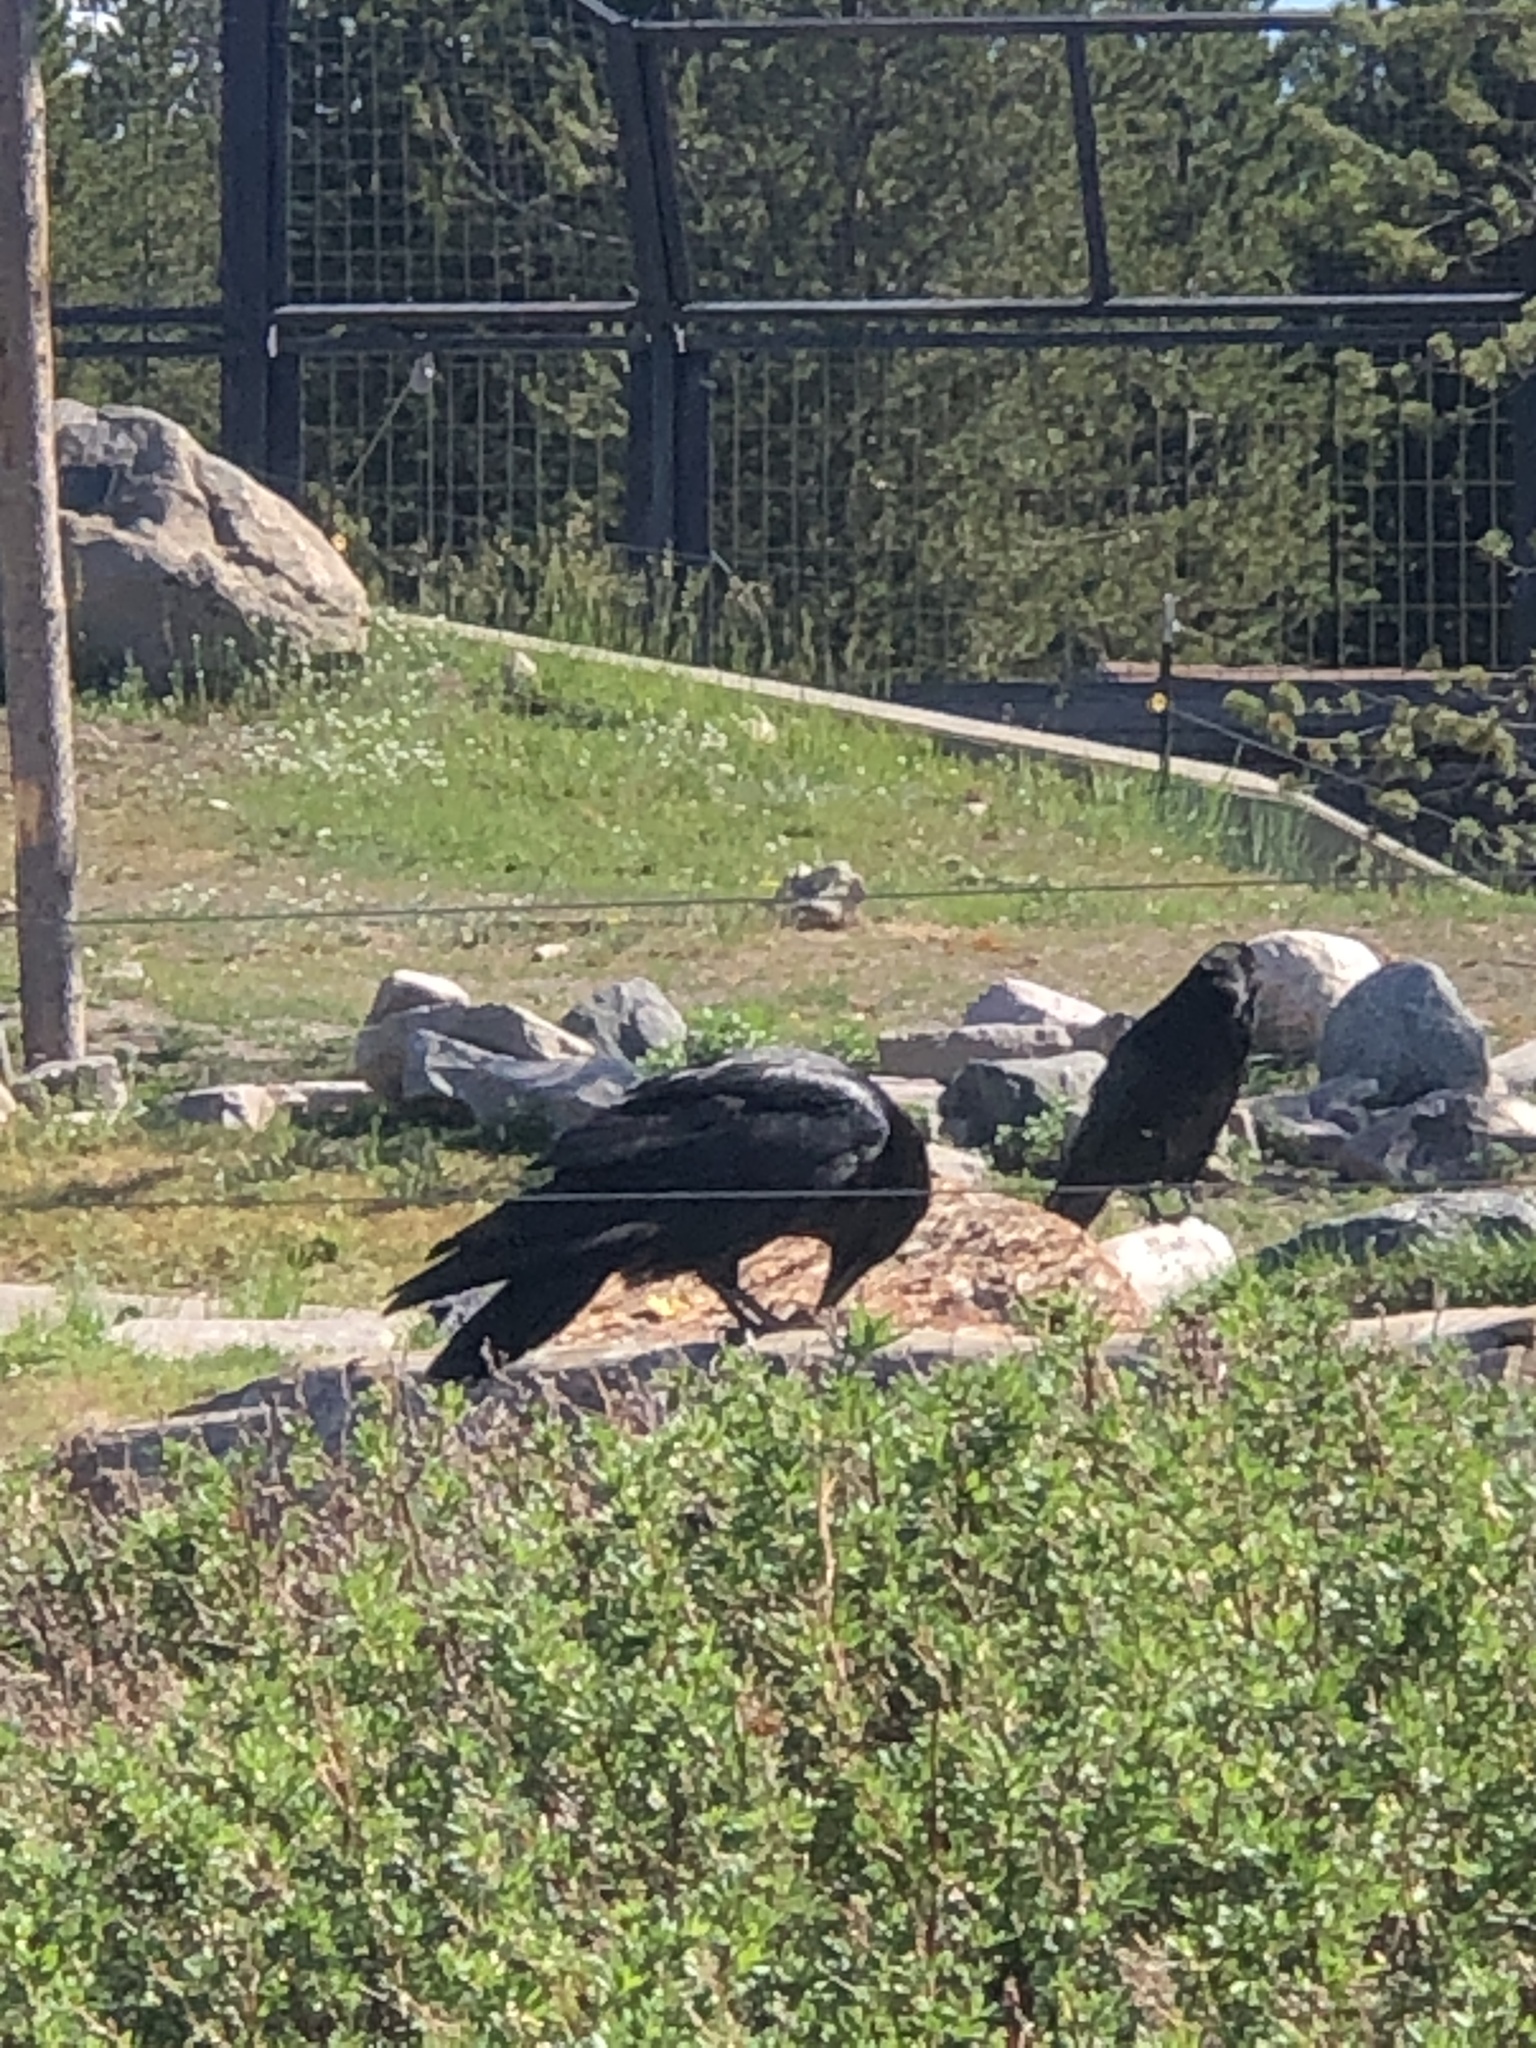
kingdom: Animalia
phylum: Chordata
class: Aves
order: Passeriformes
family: Corvidae
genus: Corvus
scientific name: Corvus corax
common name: Common raven
